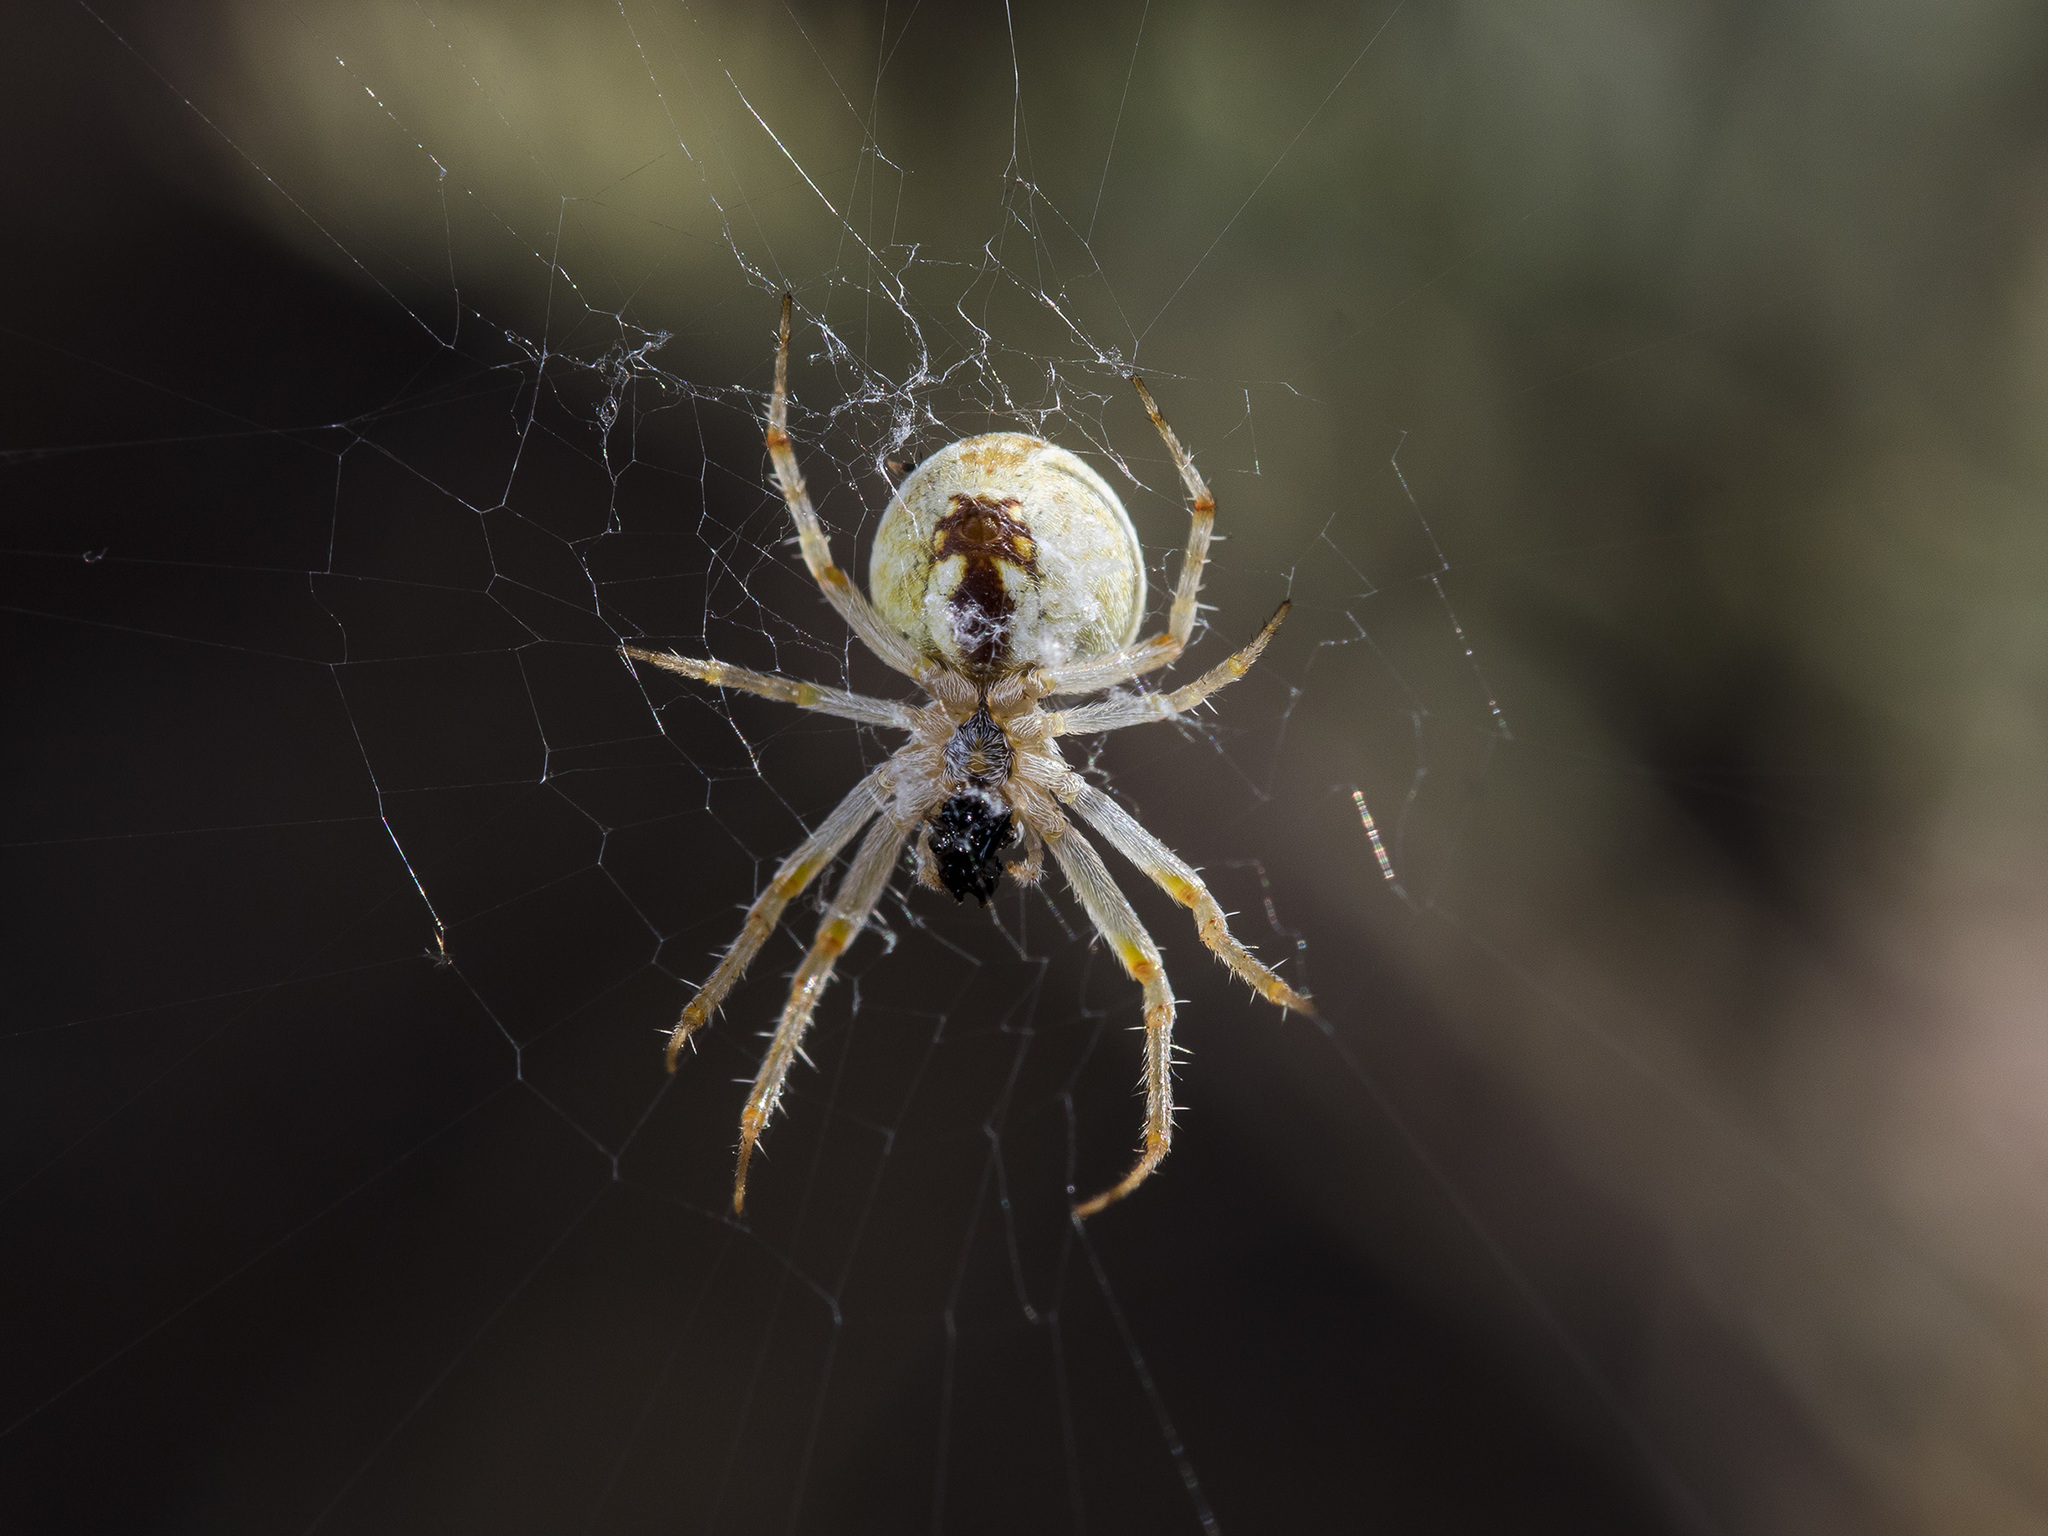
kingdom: Animalia
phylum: Arthropoda
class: Arachnida
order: Araneae
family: Araneidae
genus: Araneus
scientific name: Araneus pallasi
